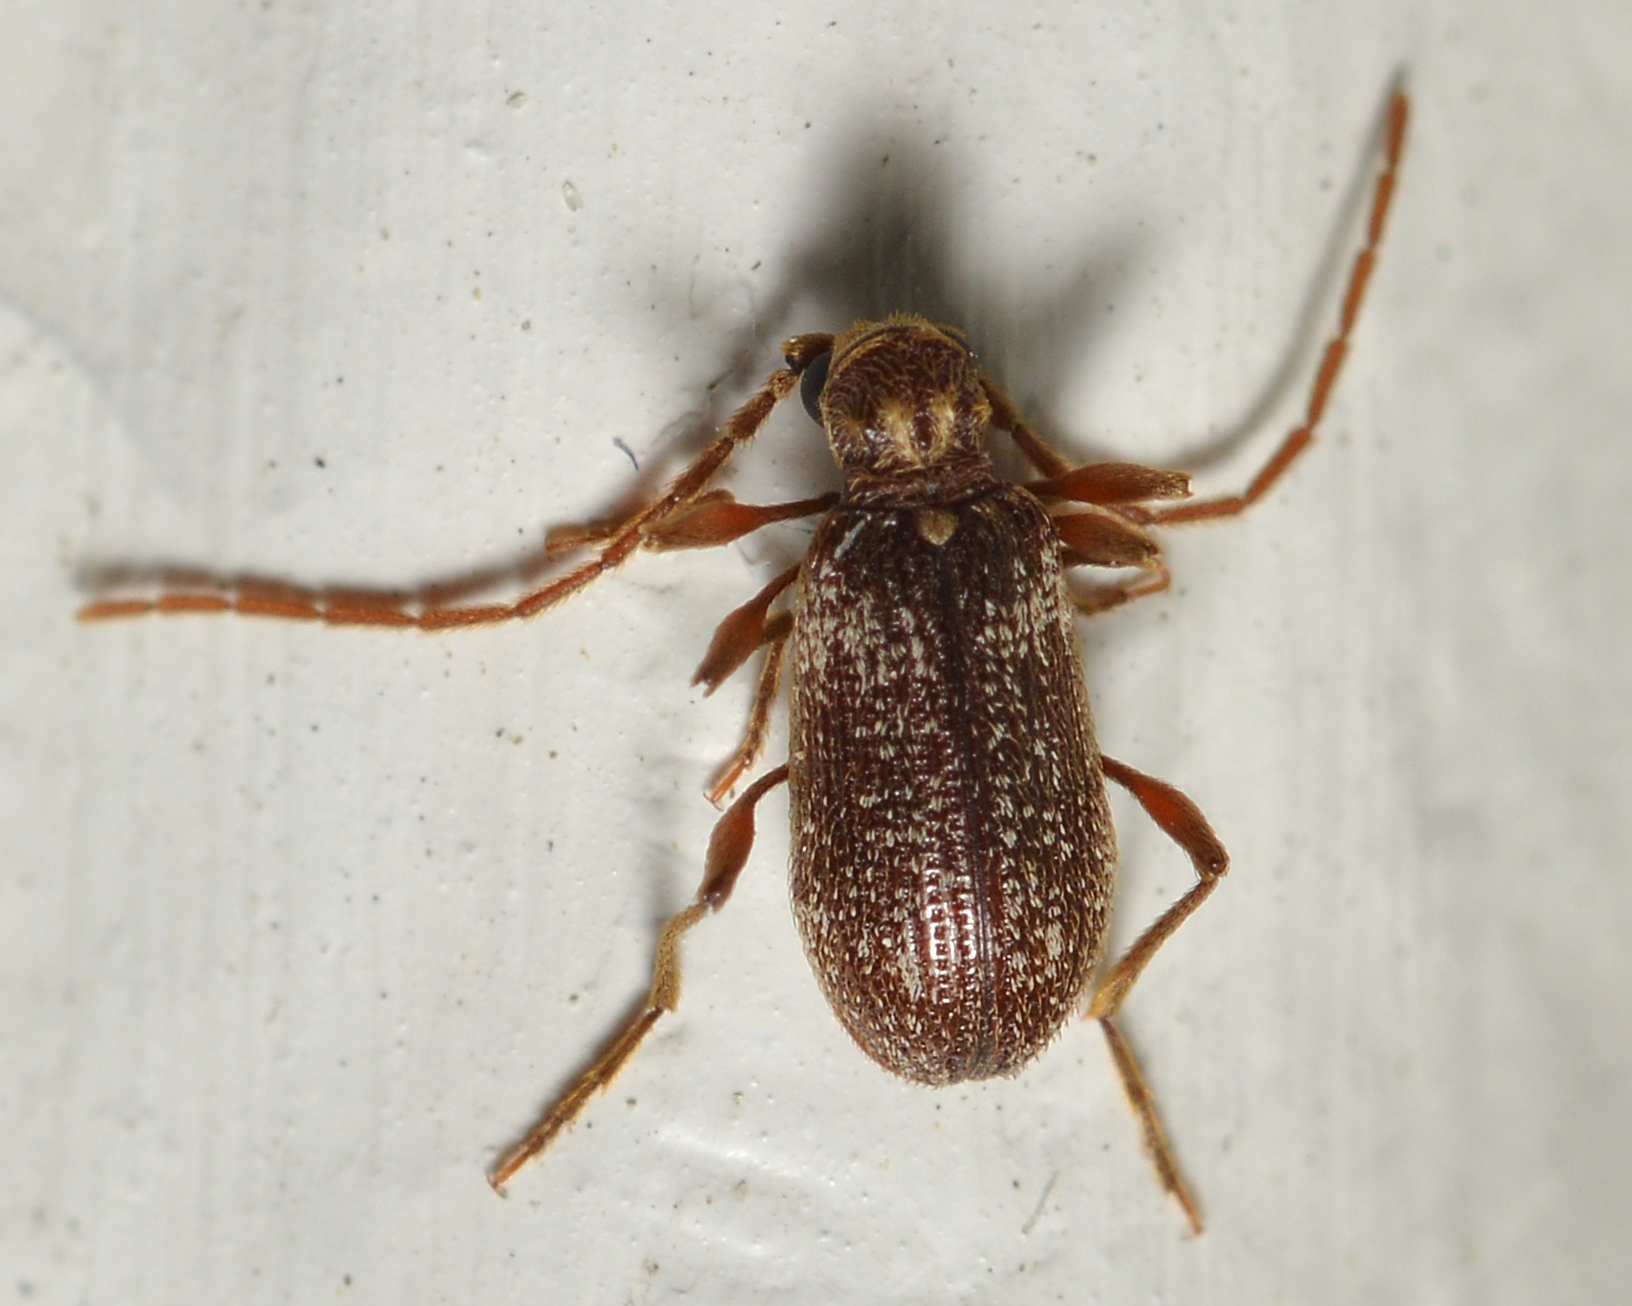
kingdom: Animalia
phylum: Arthropoda
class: Insecta
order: Coleoptera
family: Ptinidae
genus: Ptinus
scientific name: Ptinus fur
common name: White-marked spider beetle
